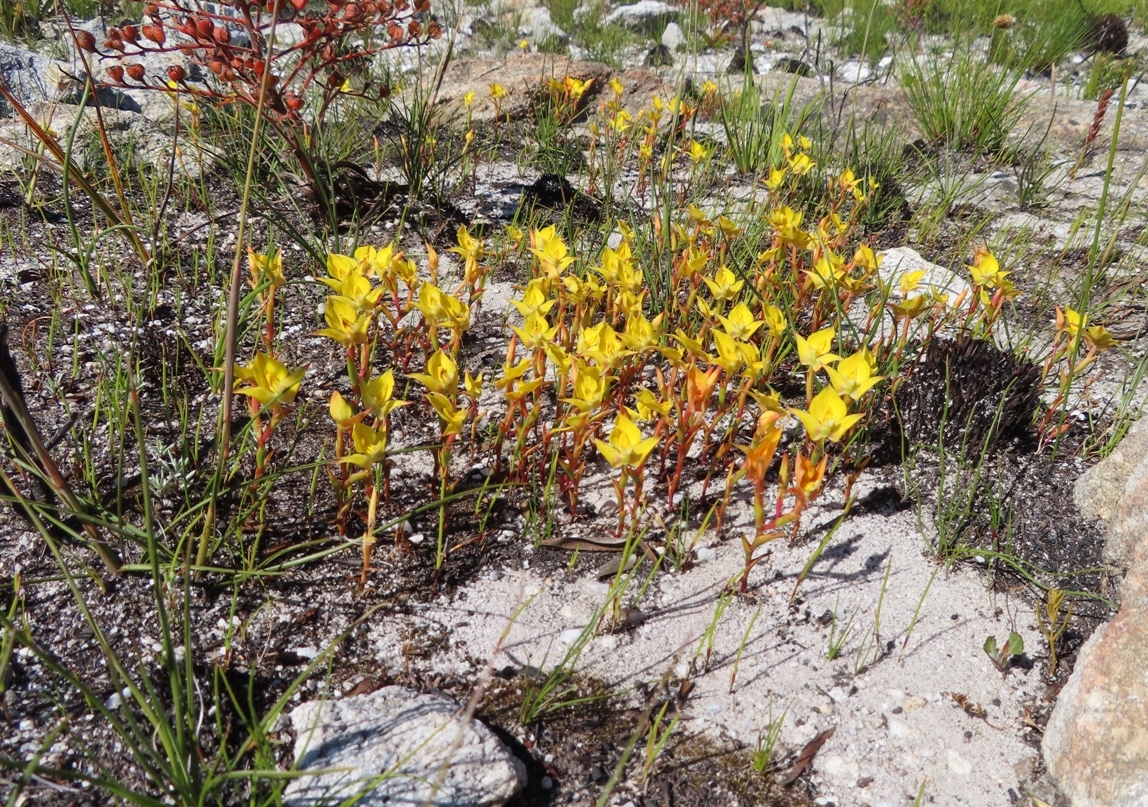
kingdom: Plantae
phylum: Tracheophyta
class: Liliopsida
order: Asparagales
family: Orchidaceae
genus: Disa
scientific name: Disa tenuifolia
